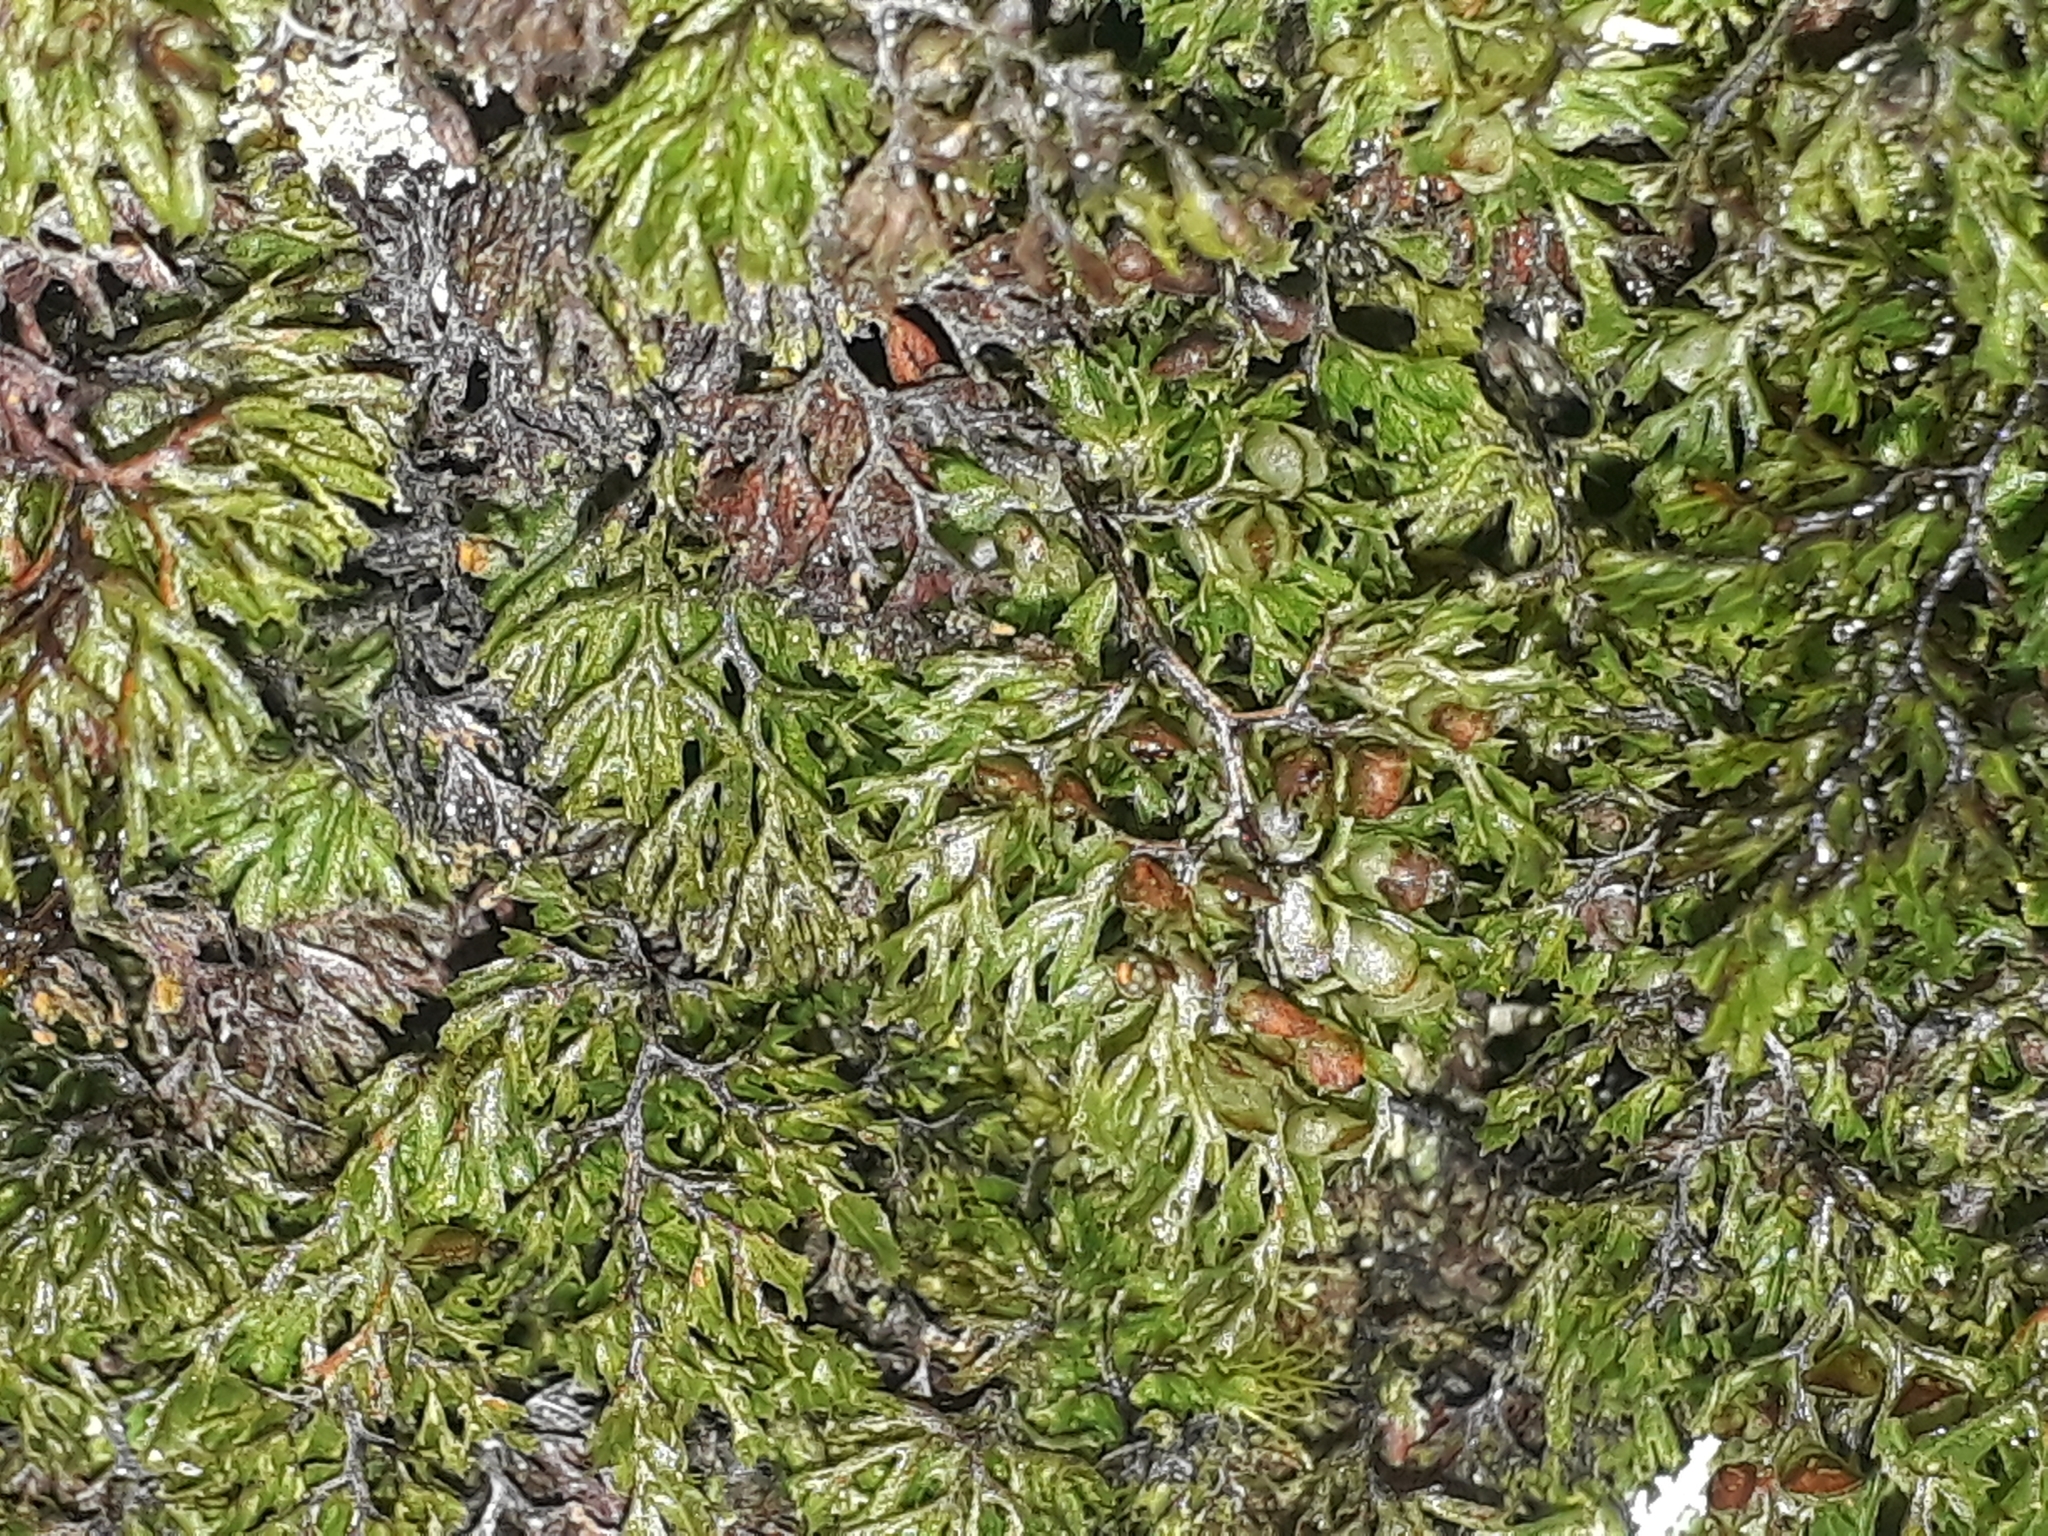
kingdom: Plantae
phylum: Tracheophyta
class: Polypodiopsida
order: Hymenophyllales
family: Hymenophyllaceae
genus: Hymenophyllum
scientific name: Hymenophyllum multifidum
